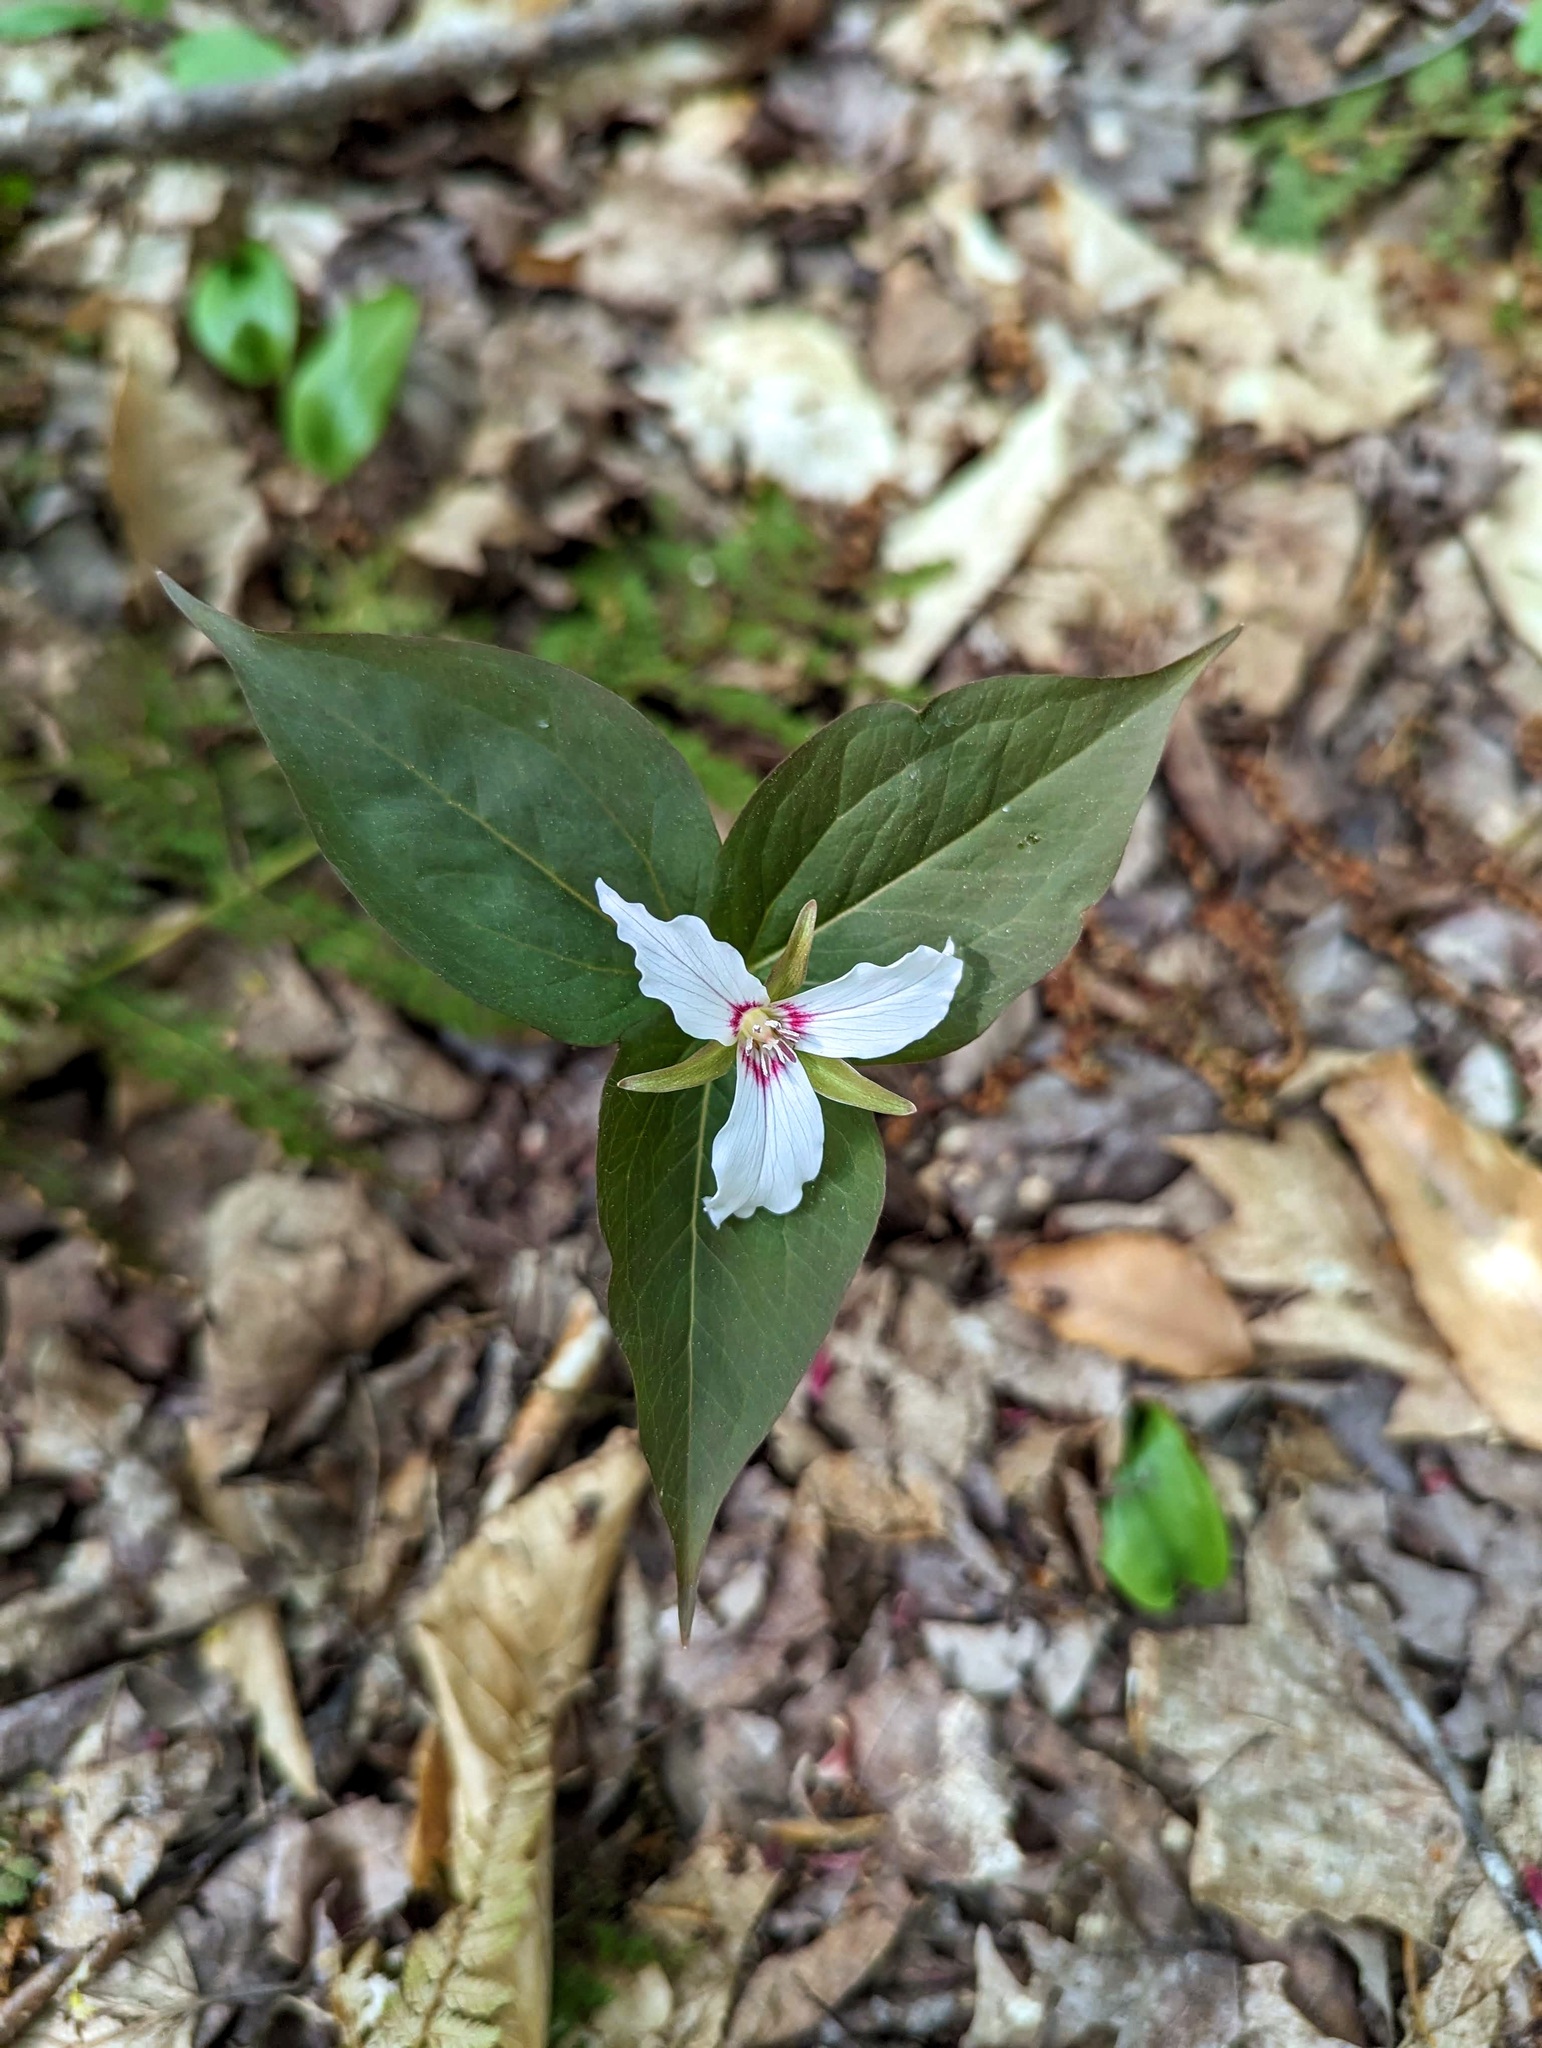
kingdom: Plantae
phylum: Tracheophyta
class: Liliopsida
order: Liliales
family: Melanthiaceae
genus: Trillium
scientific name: Trillium undulatum
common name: Paint trillium
